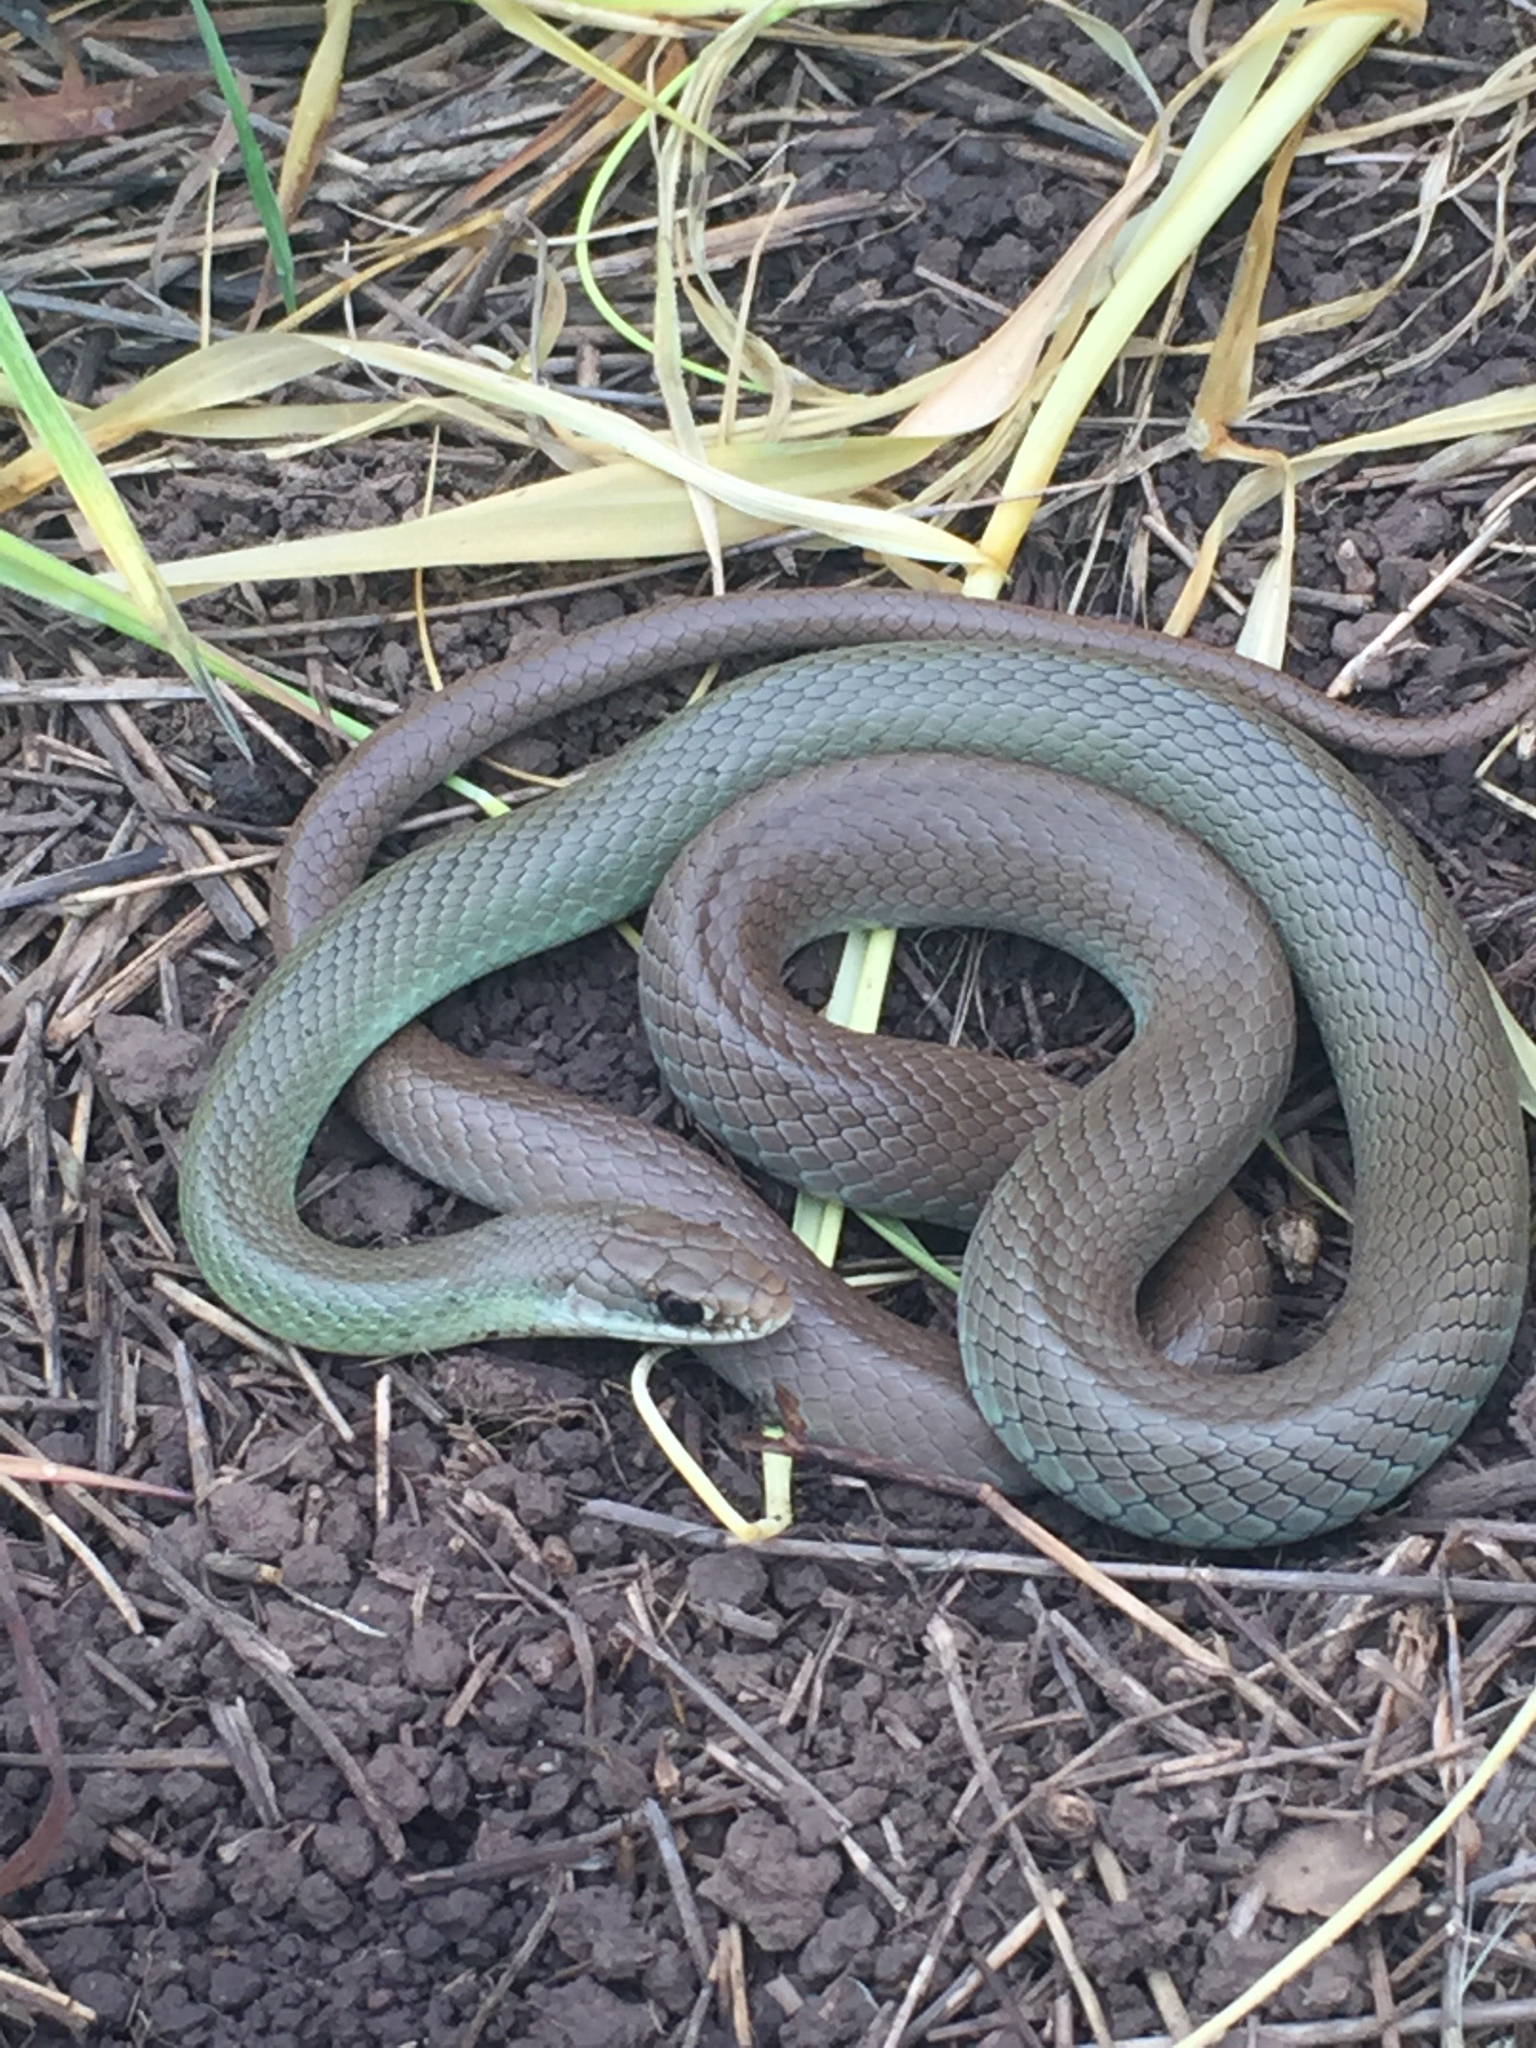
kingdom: Animalia
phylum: Chordata
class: Squamata
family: Colubridae
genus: Coluber
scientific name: Coluber constrictor
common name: Eastern racer
